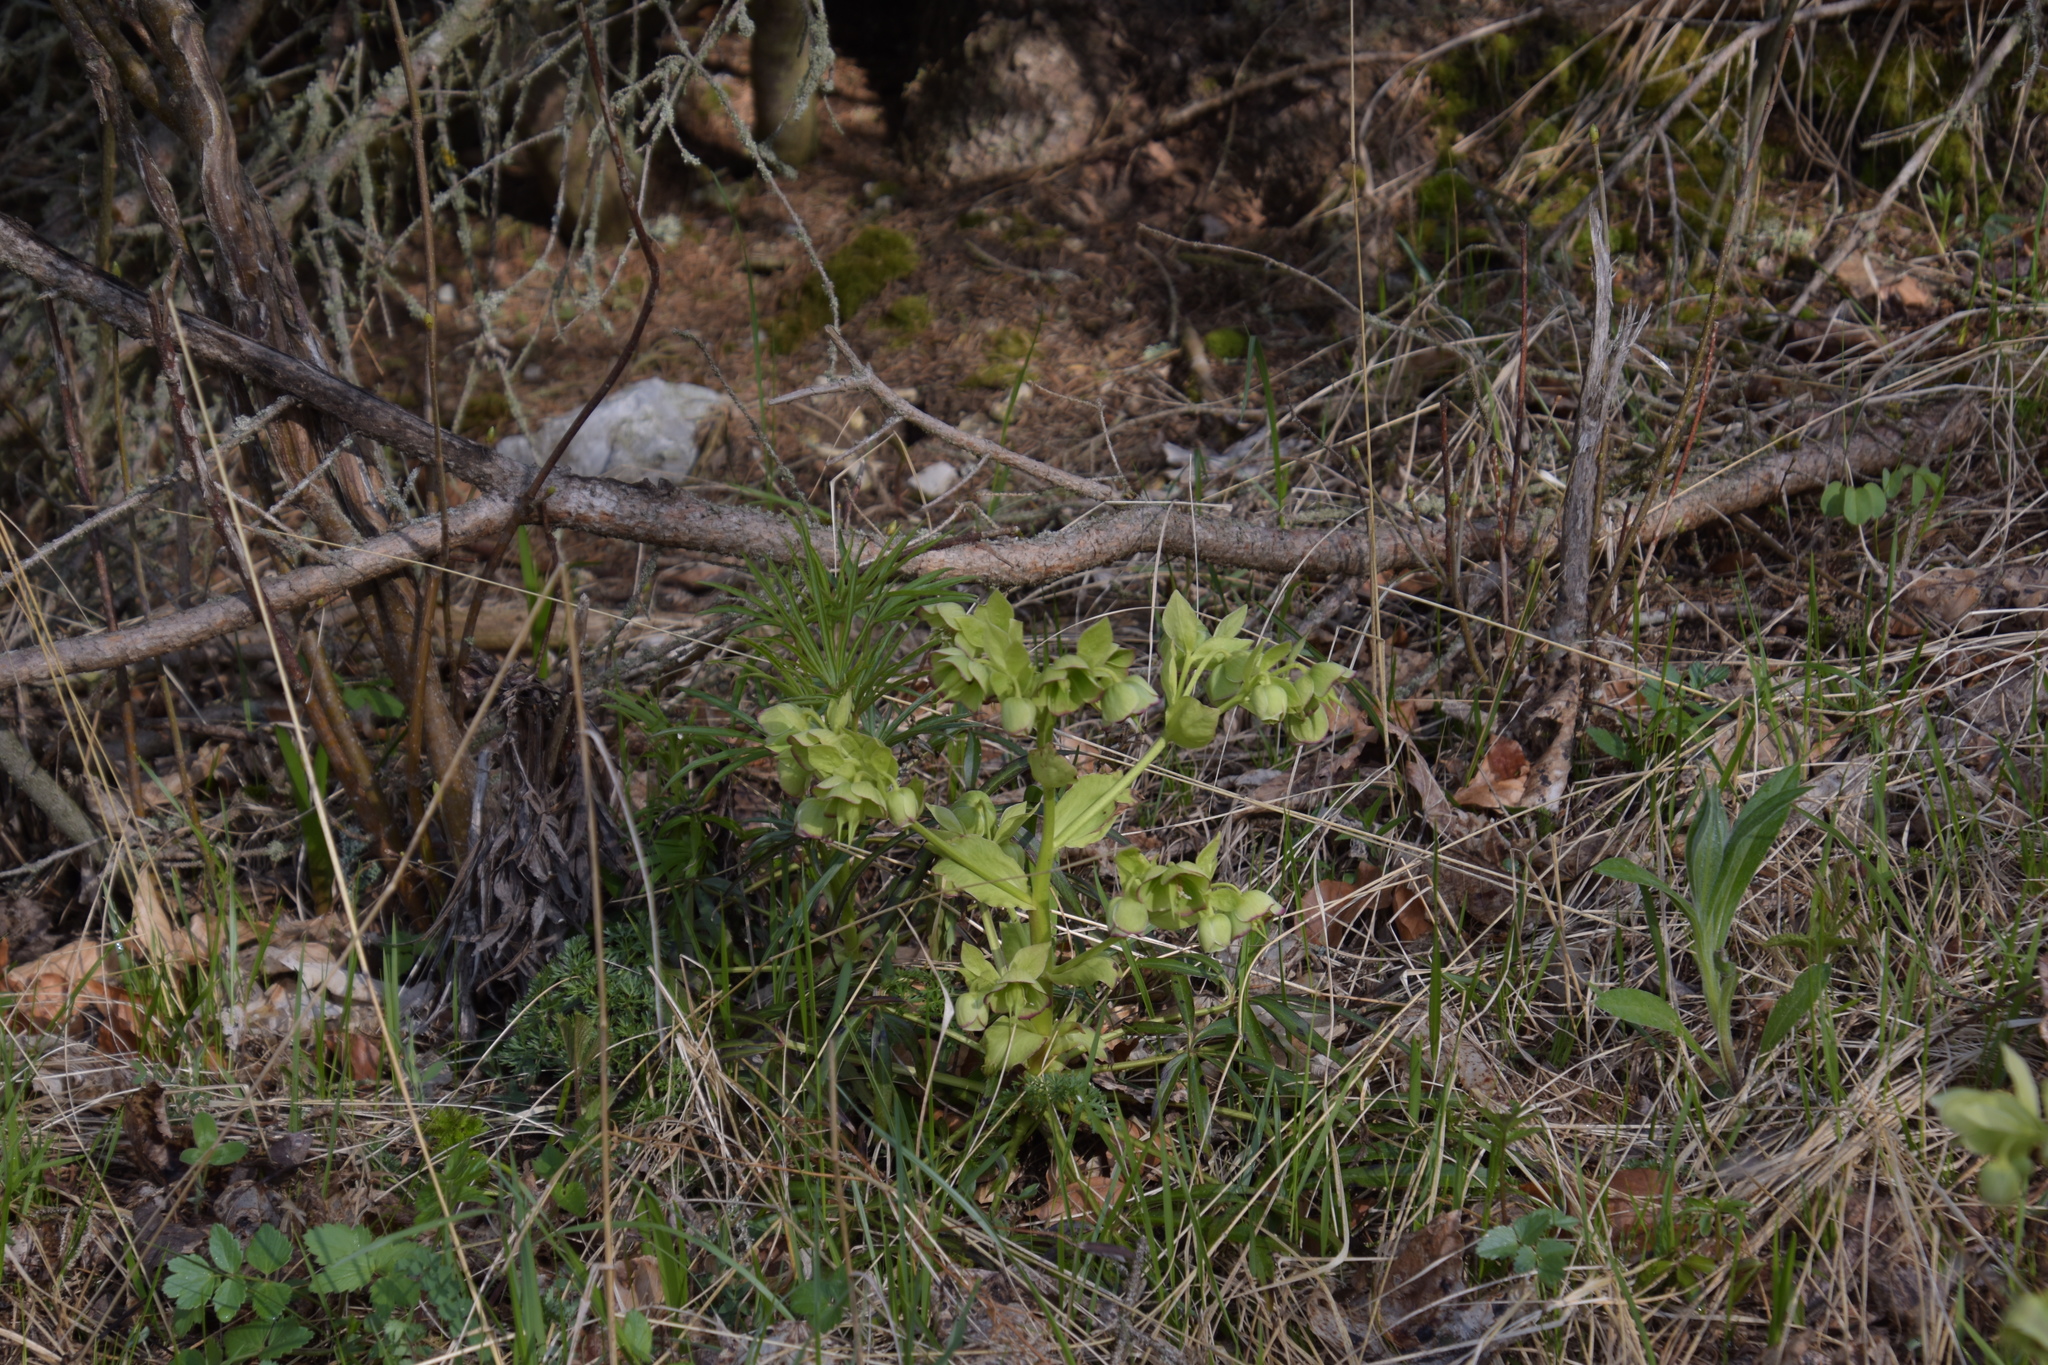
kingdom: Plantae
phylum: Tracheophyta
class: Magnoliopsida
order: Ranunculales
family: Ranunculaceae
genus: Helleborus
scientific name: Helleborus foetidus
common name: Stinking hellebore
